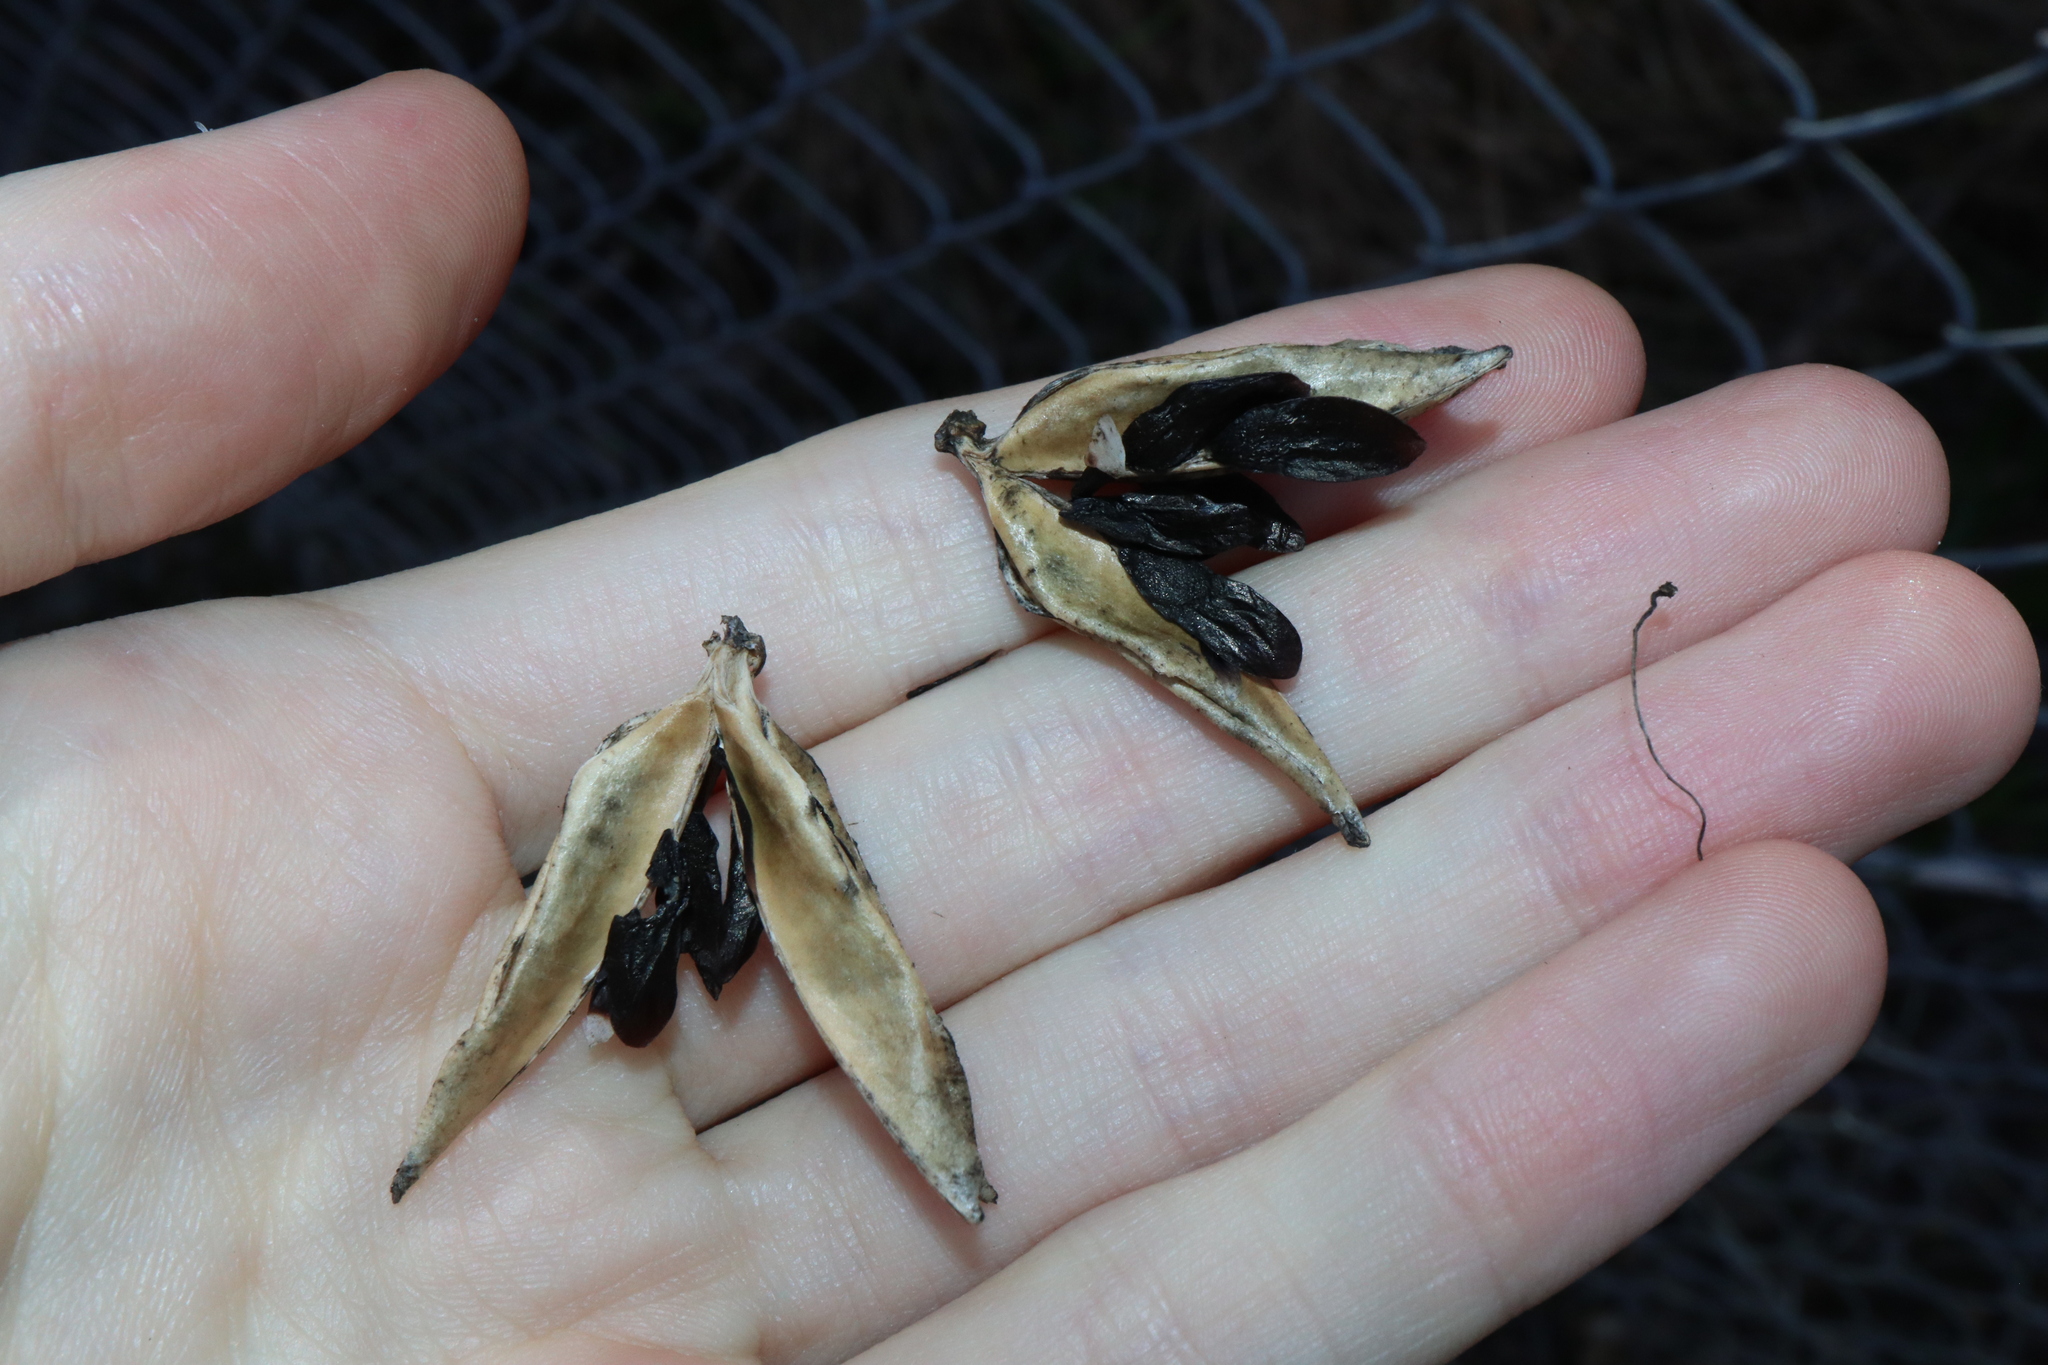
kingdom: Plantae
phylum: Tracheophyta
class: Liliopsida
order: Asparagales
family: Amaryllidaceae
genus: Agapanthus
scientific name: Agapanthus praecox
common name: African-lily
